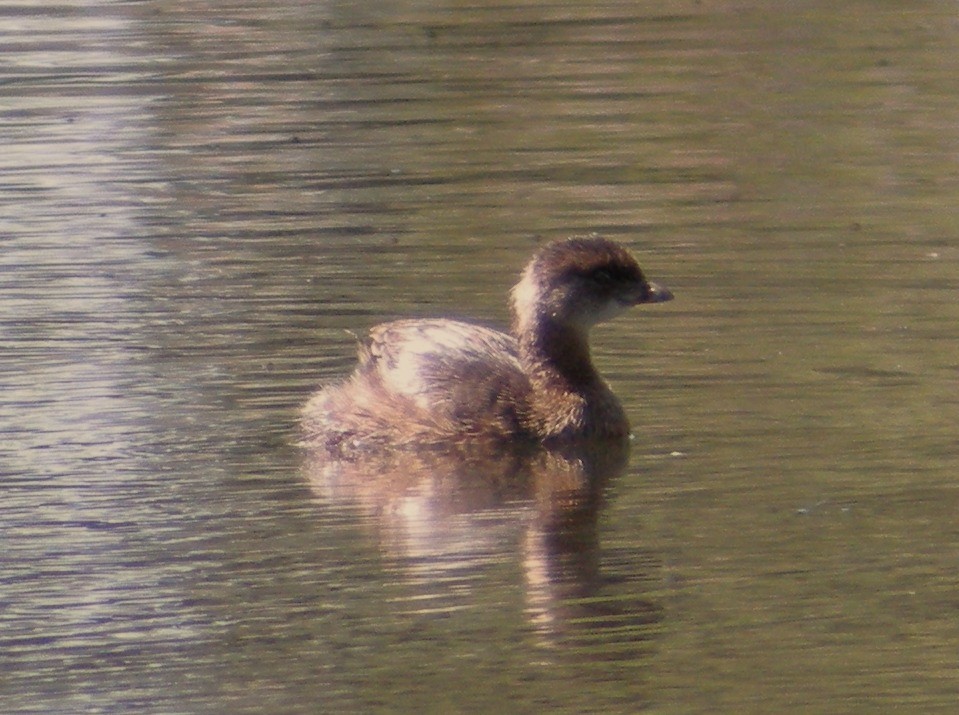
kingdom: Animalia
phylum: Chordata
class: Aves
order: Podicipediformes
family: Podicipedidae
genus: Podilymbus
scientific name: Podilymbus podiceps
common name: Pied-billed grebe
